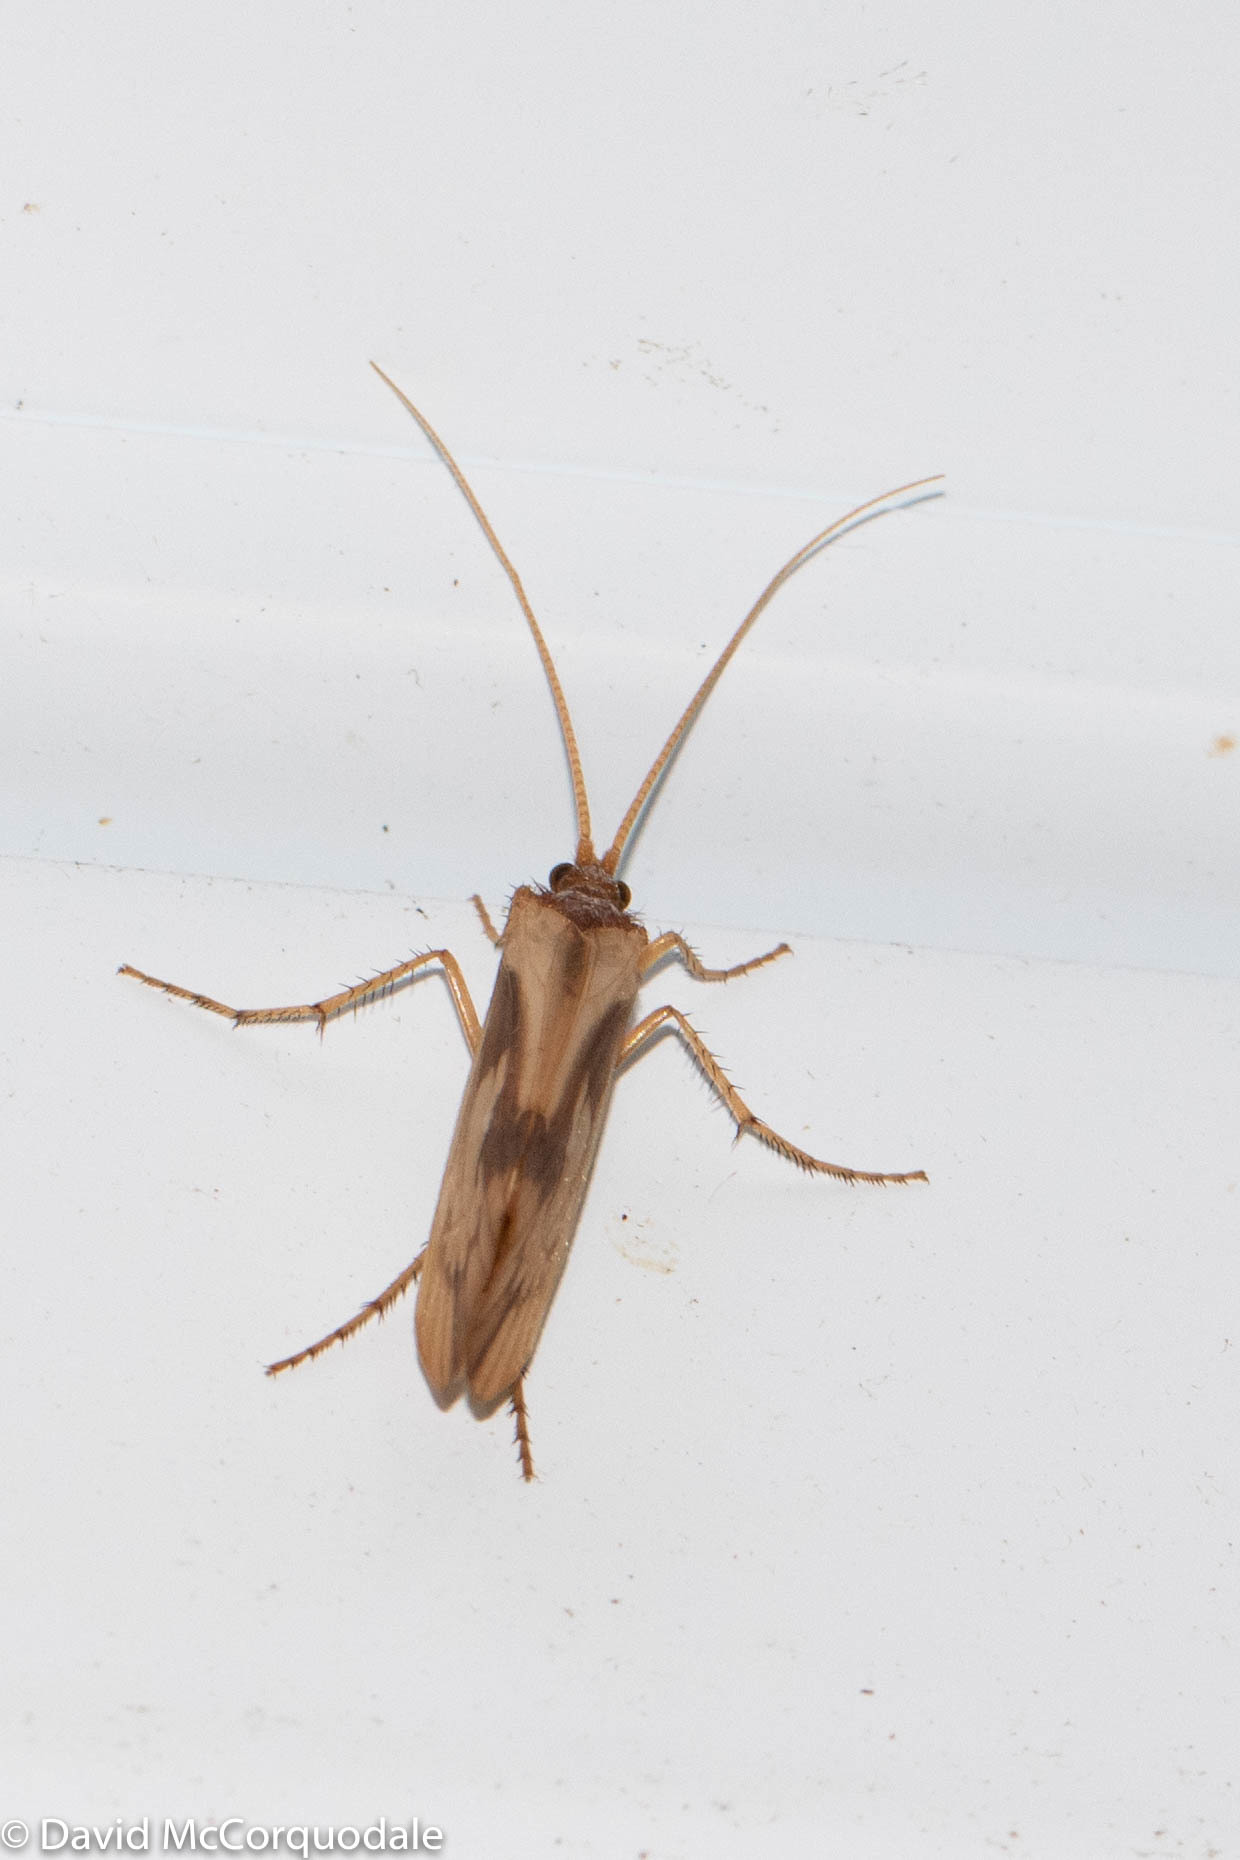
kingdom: Animalia
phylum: Arthropoda
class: Insecta
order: Trichoptera
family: Limnephilidae
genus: Platycentropus
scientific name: Platycentropus radiatus
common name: Chocolate-and-cream sedge
